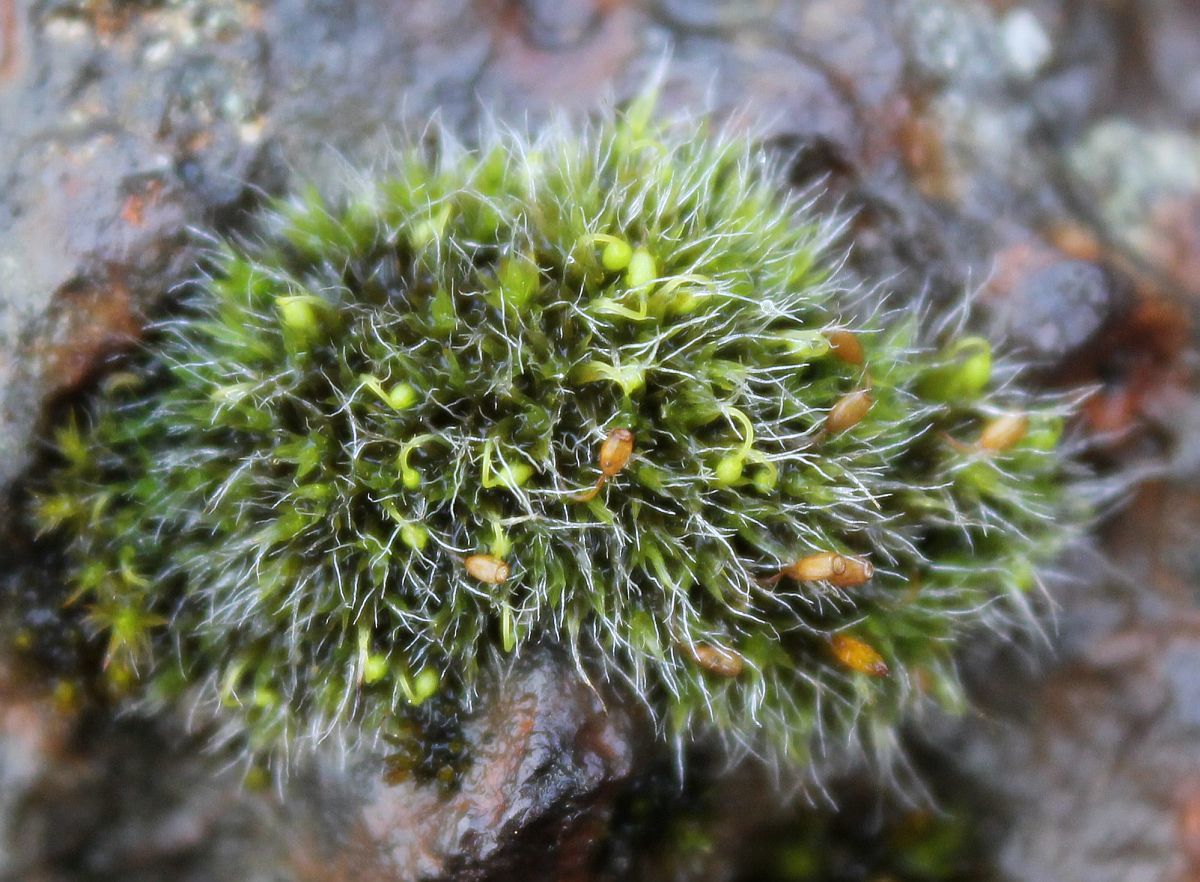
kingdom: Plantae
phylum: Bryophyta
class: Bryopsida
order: Grimmiales
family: Grimmiaceae
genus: Grimmia
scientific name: Grimmia pulvinata
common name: Grey-cushioned grimmia
